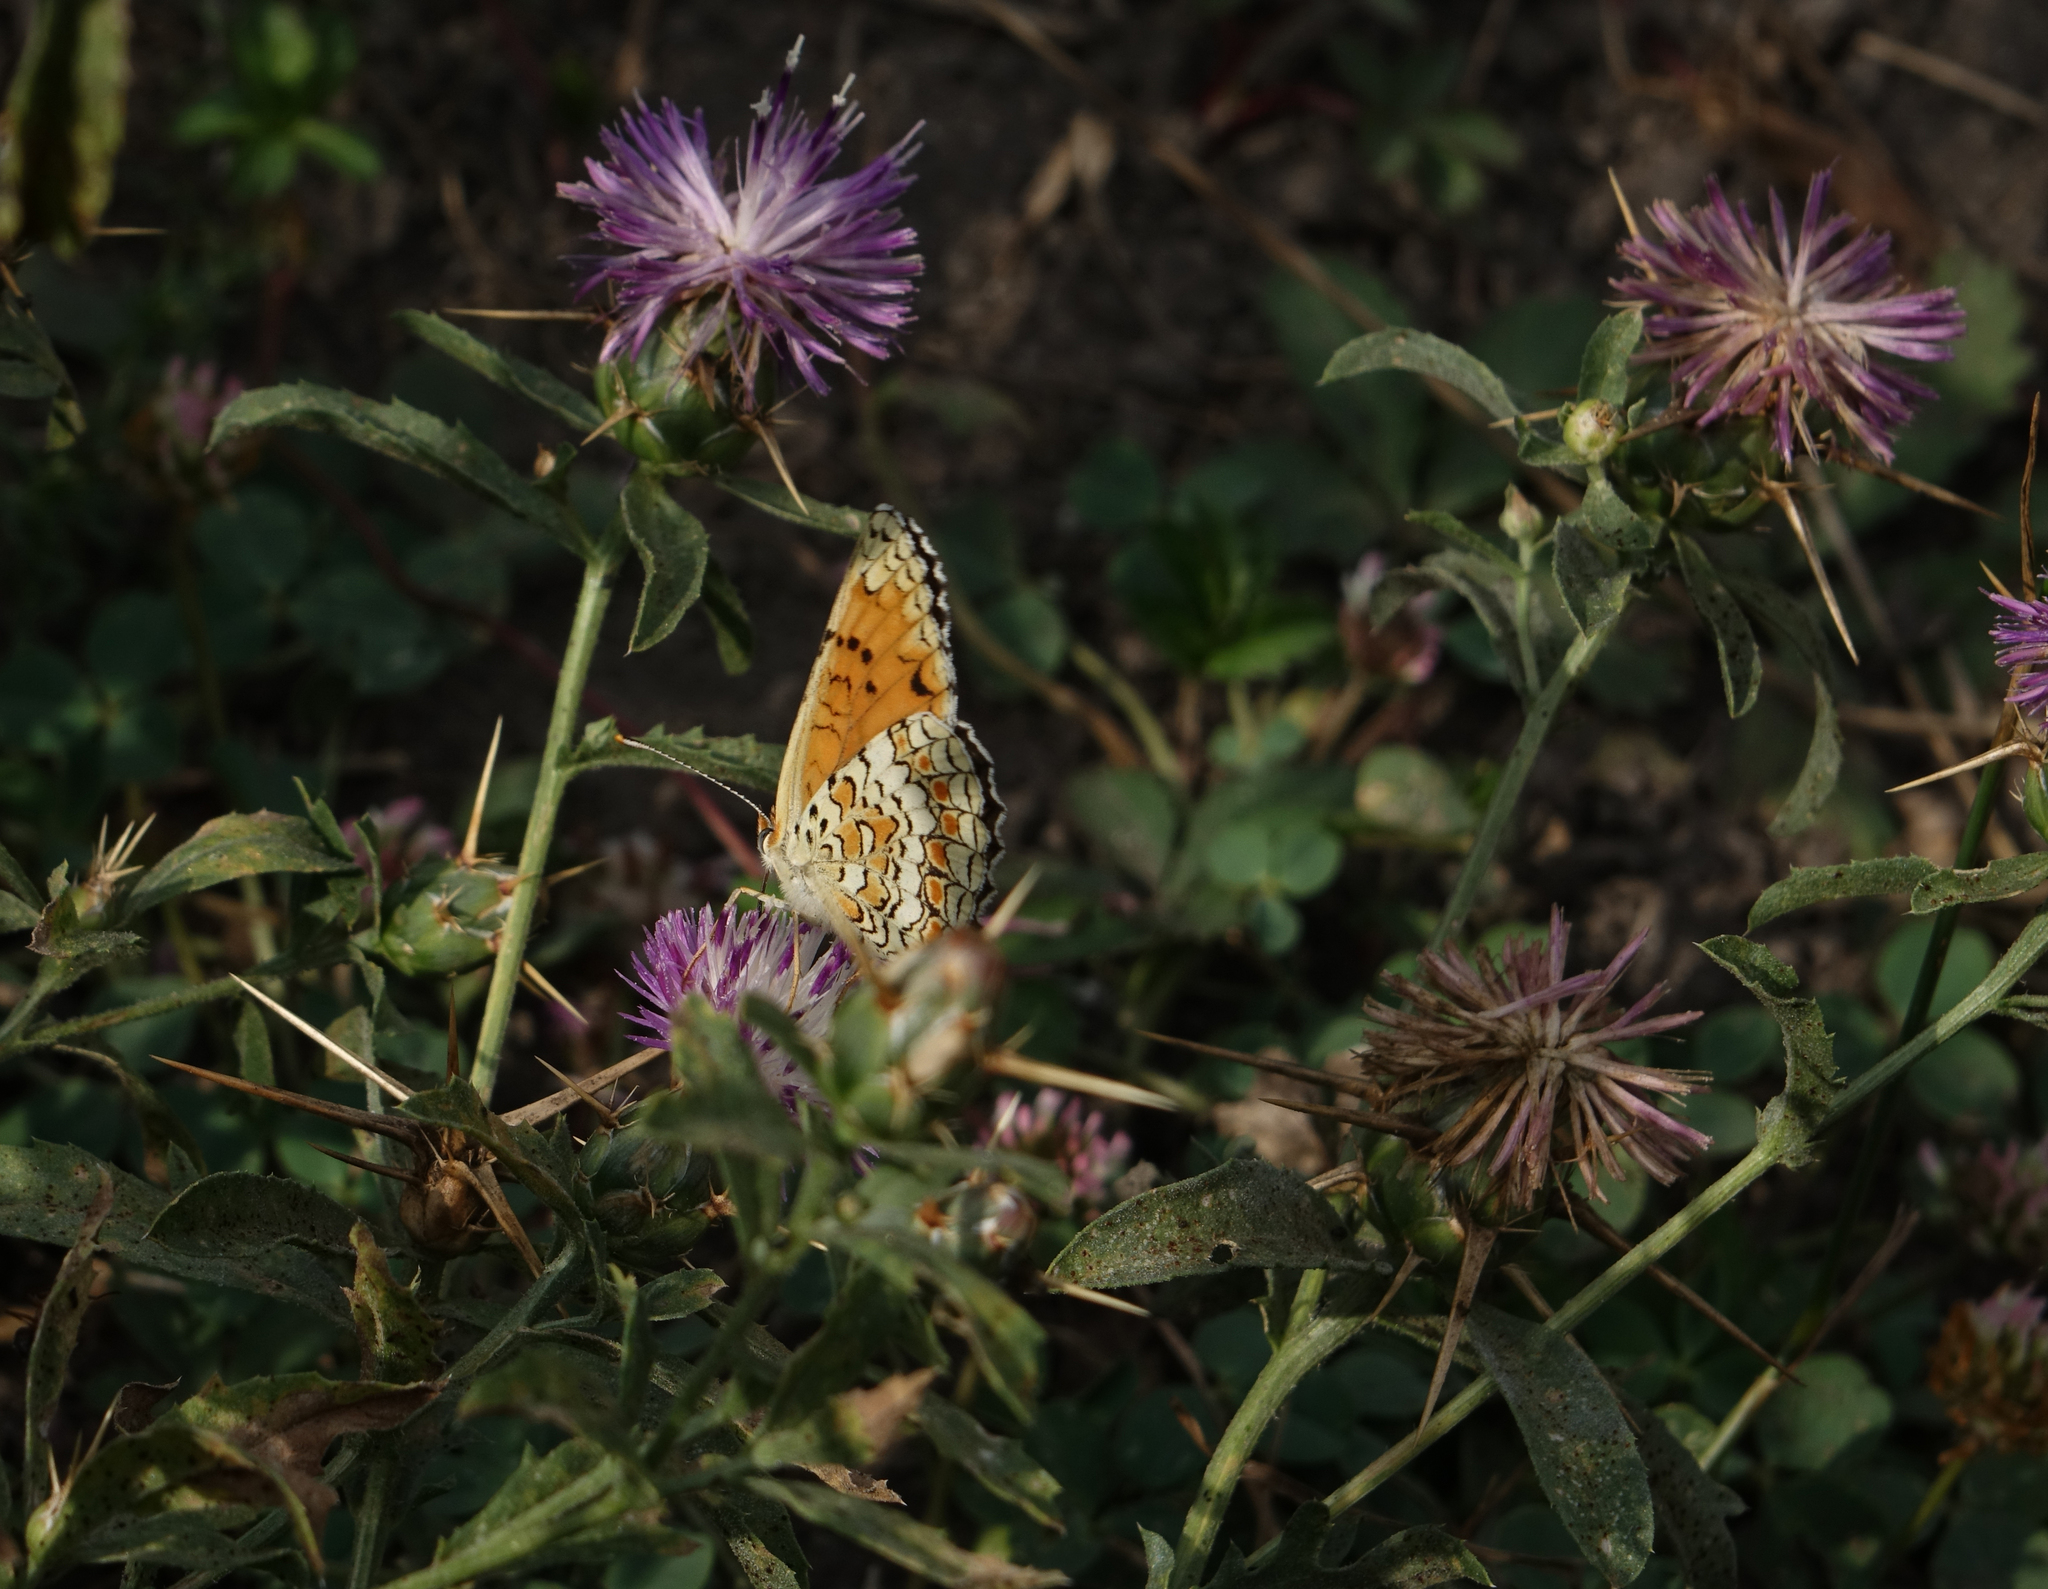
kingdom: Animalia
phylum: Arthropoda
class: Insecta
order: Lepidoptera
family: Nymphalidae
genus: Melitaea
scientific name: Melitaea phoebe
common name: Knapweed fritillary
